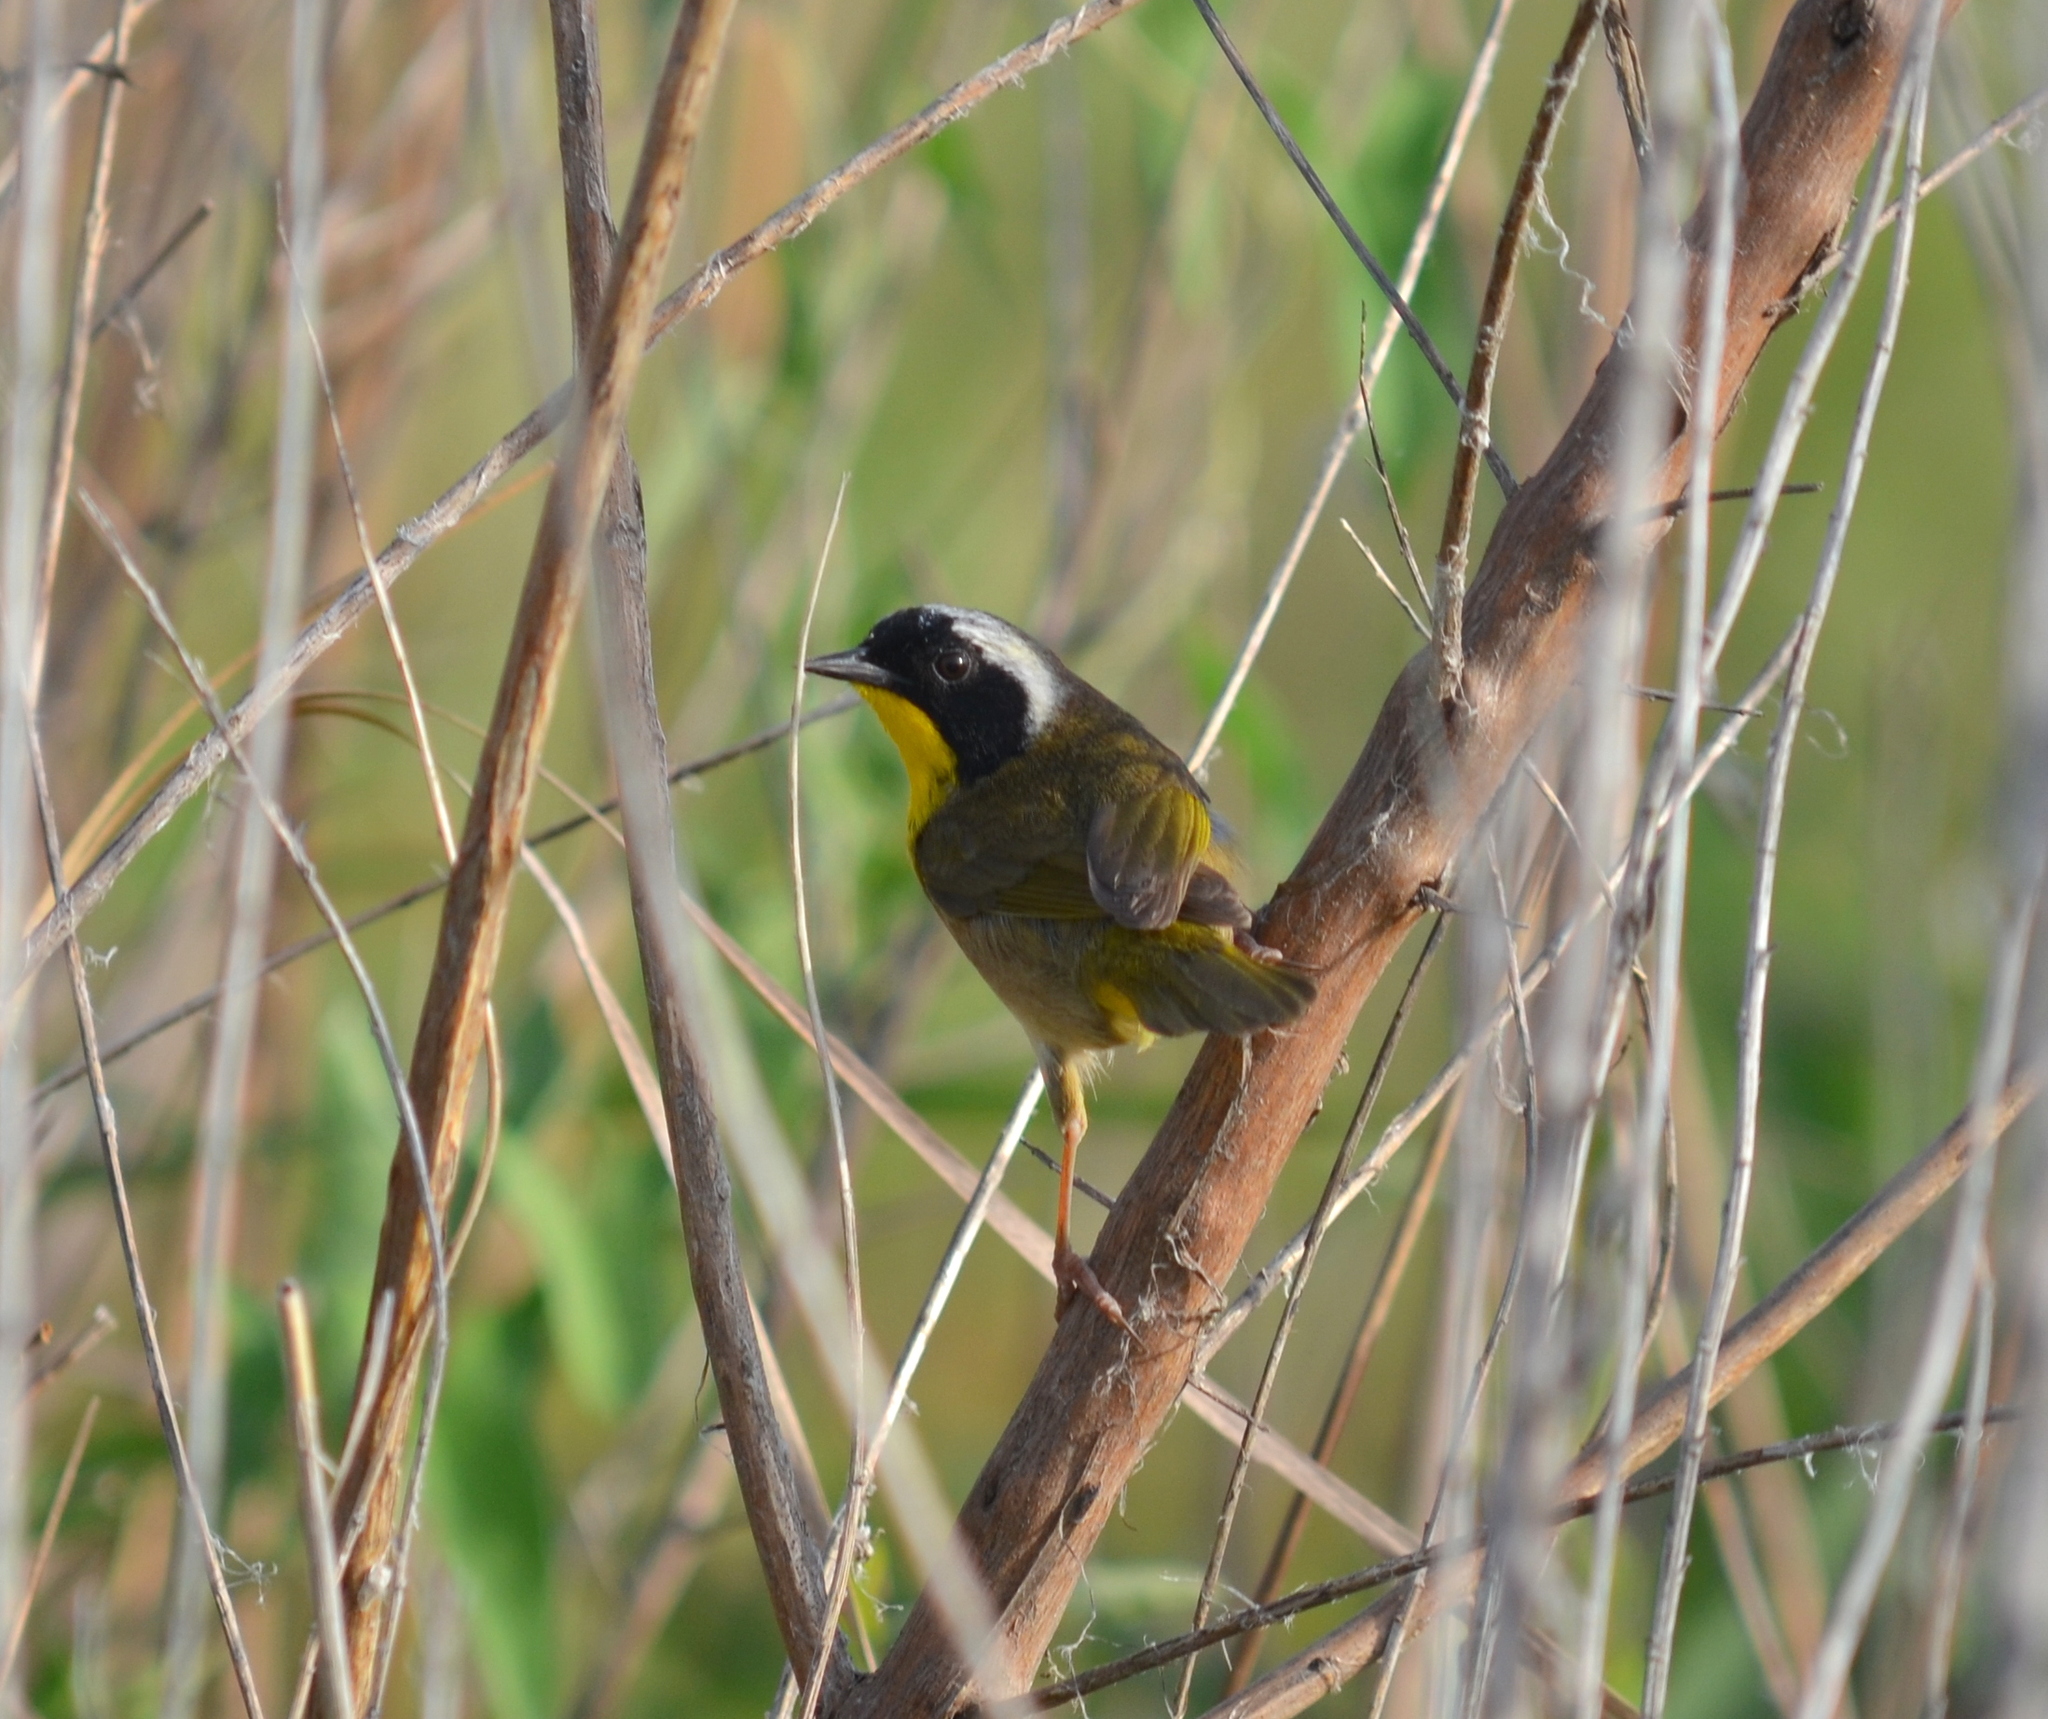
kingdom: Animalia
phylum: Chordata
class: Aves
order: Passeriformes
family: Parulidae
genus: Geothlypis
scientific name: Geothlypis trichas
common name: Common yellowthroat
